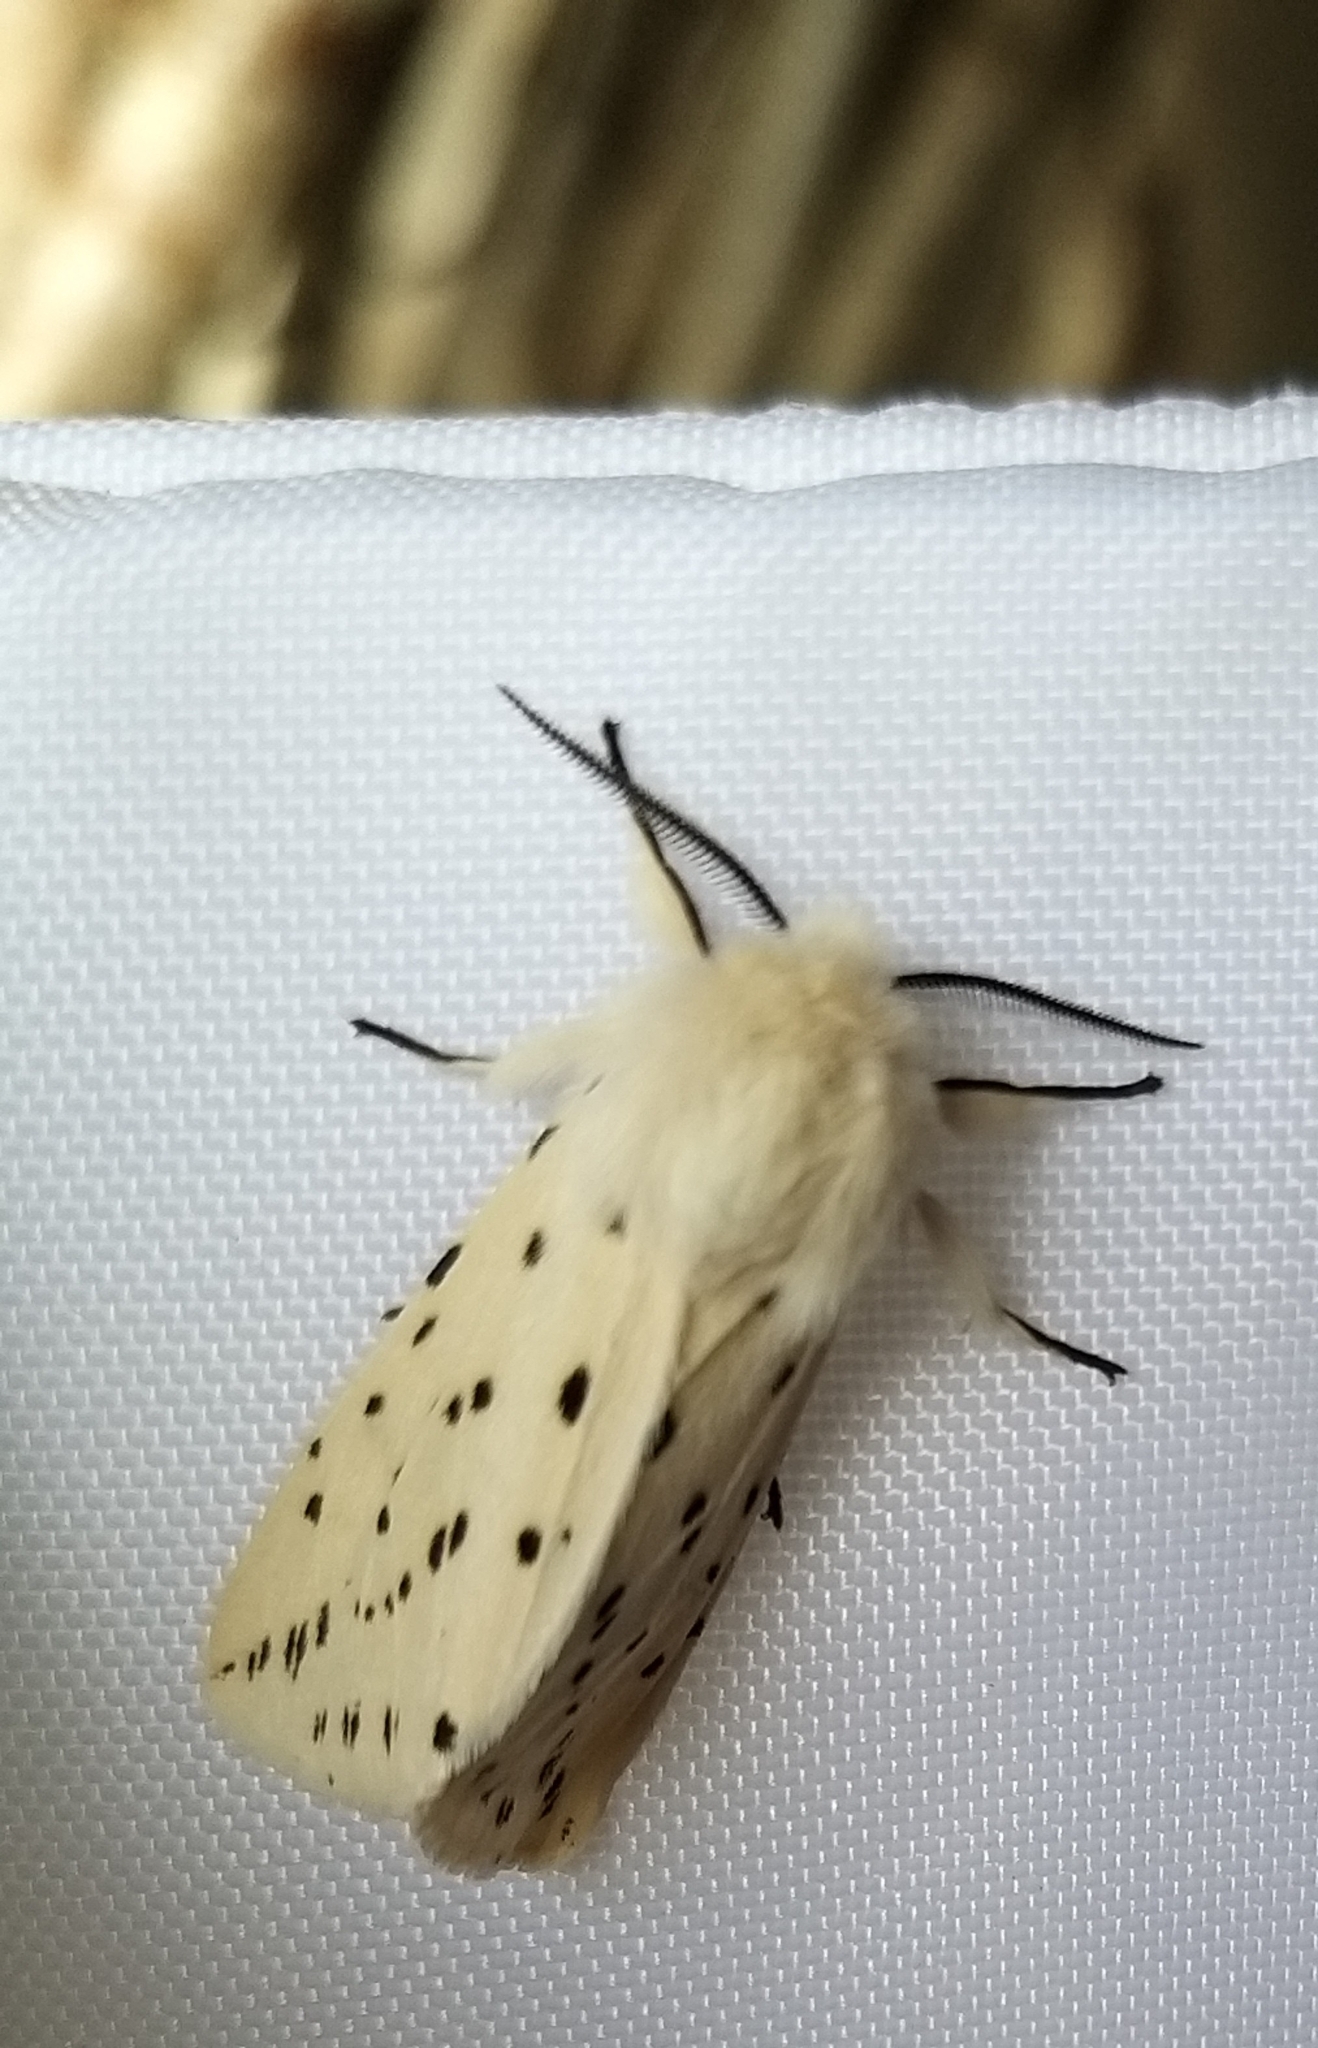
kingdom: Animalia
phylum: Arthropoda
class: Insecta
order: Lepidoptera
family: Erebidae
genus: Spilosoma
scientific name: Spilosoma lubricipeda
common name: White ermine
